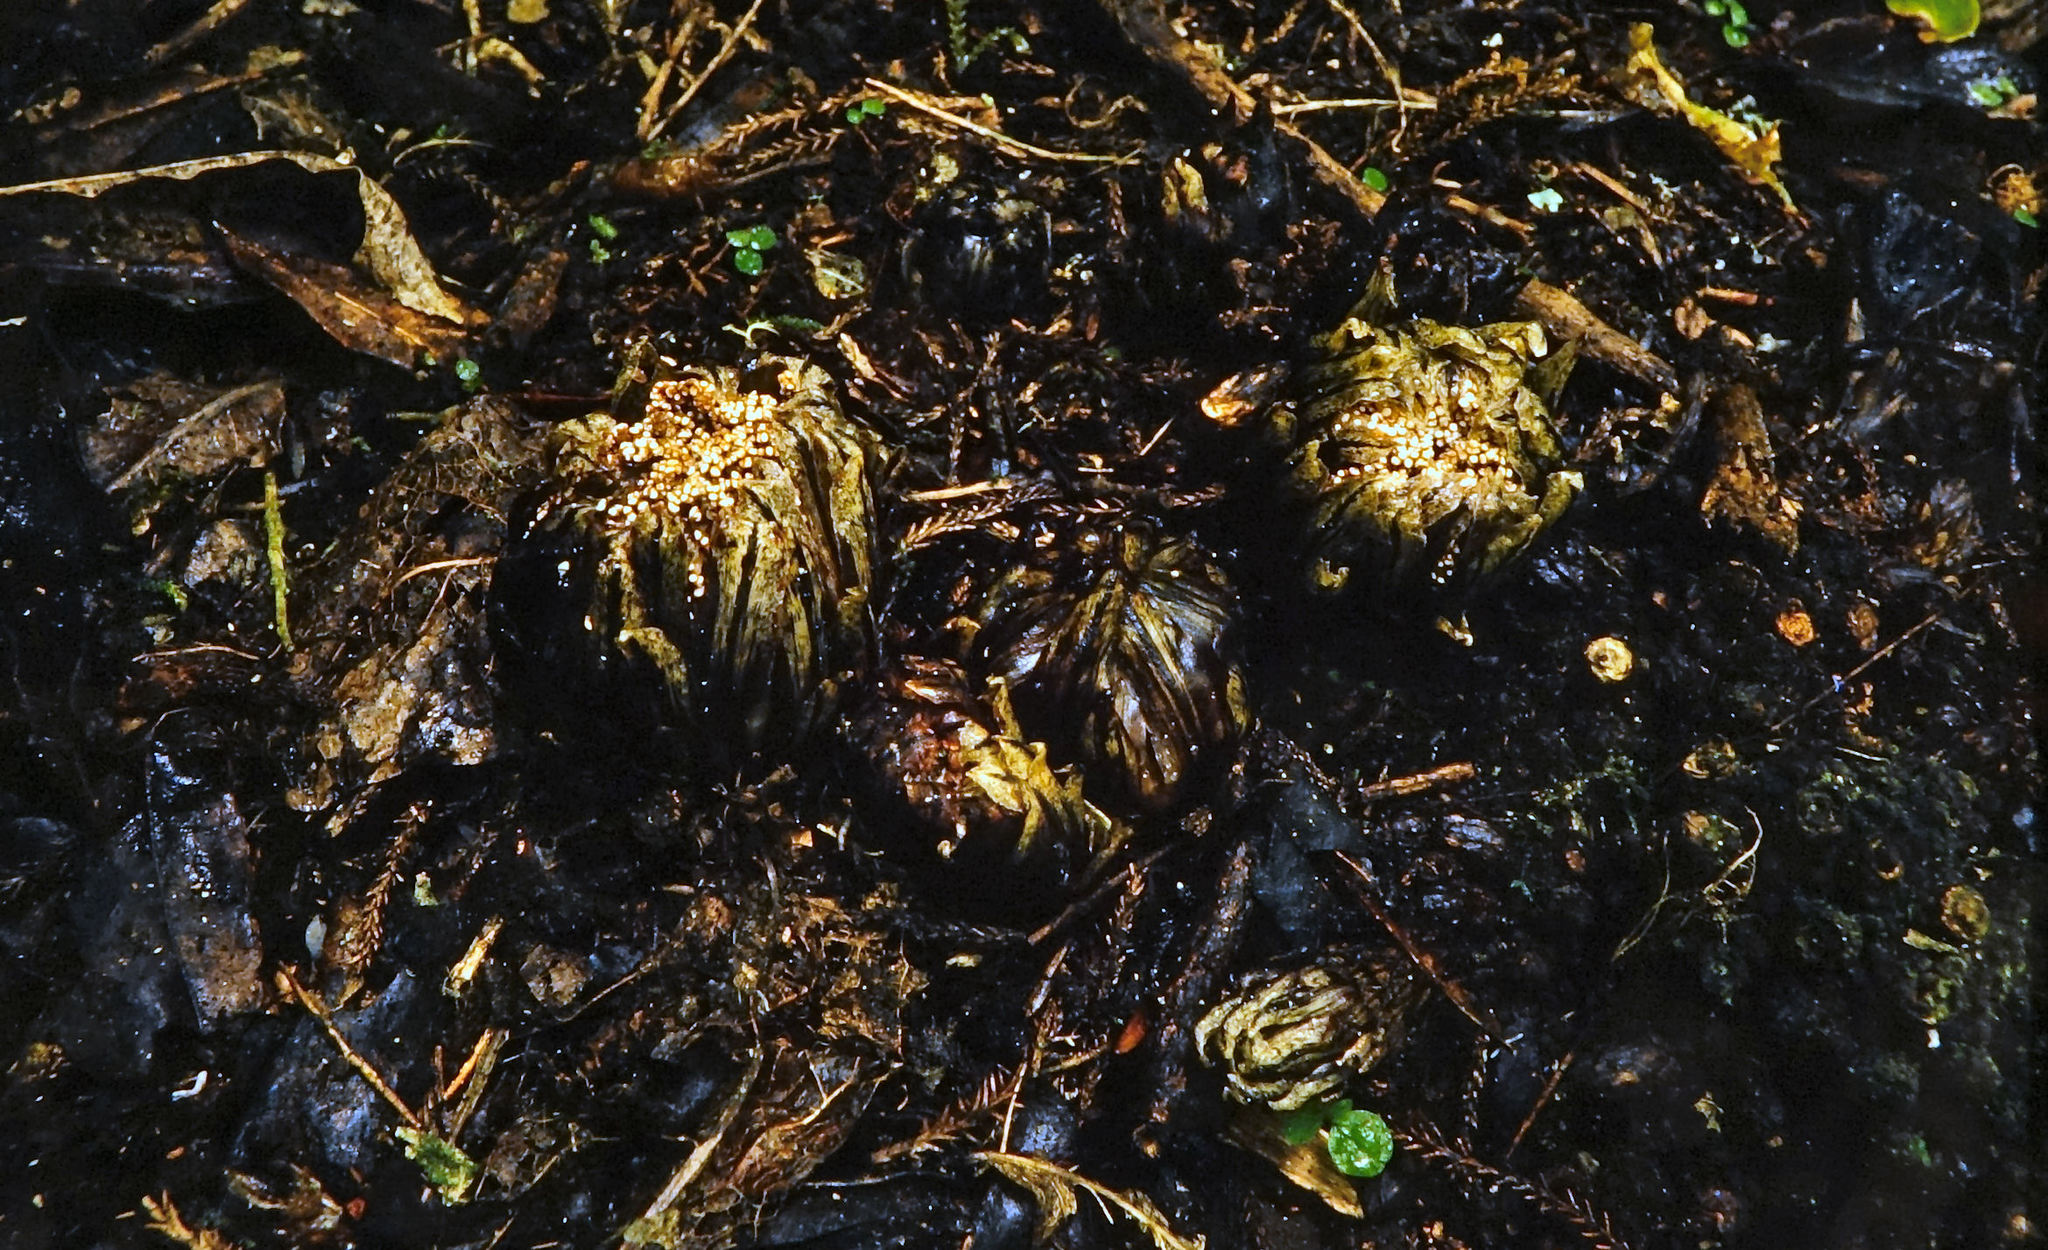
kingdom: Plantae
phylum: Tracheophyta
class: Magnoliopsida
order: Santalales
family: Mystropetalaceae
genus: Dactylanthus
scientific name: Dactylanthus taylorii
